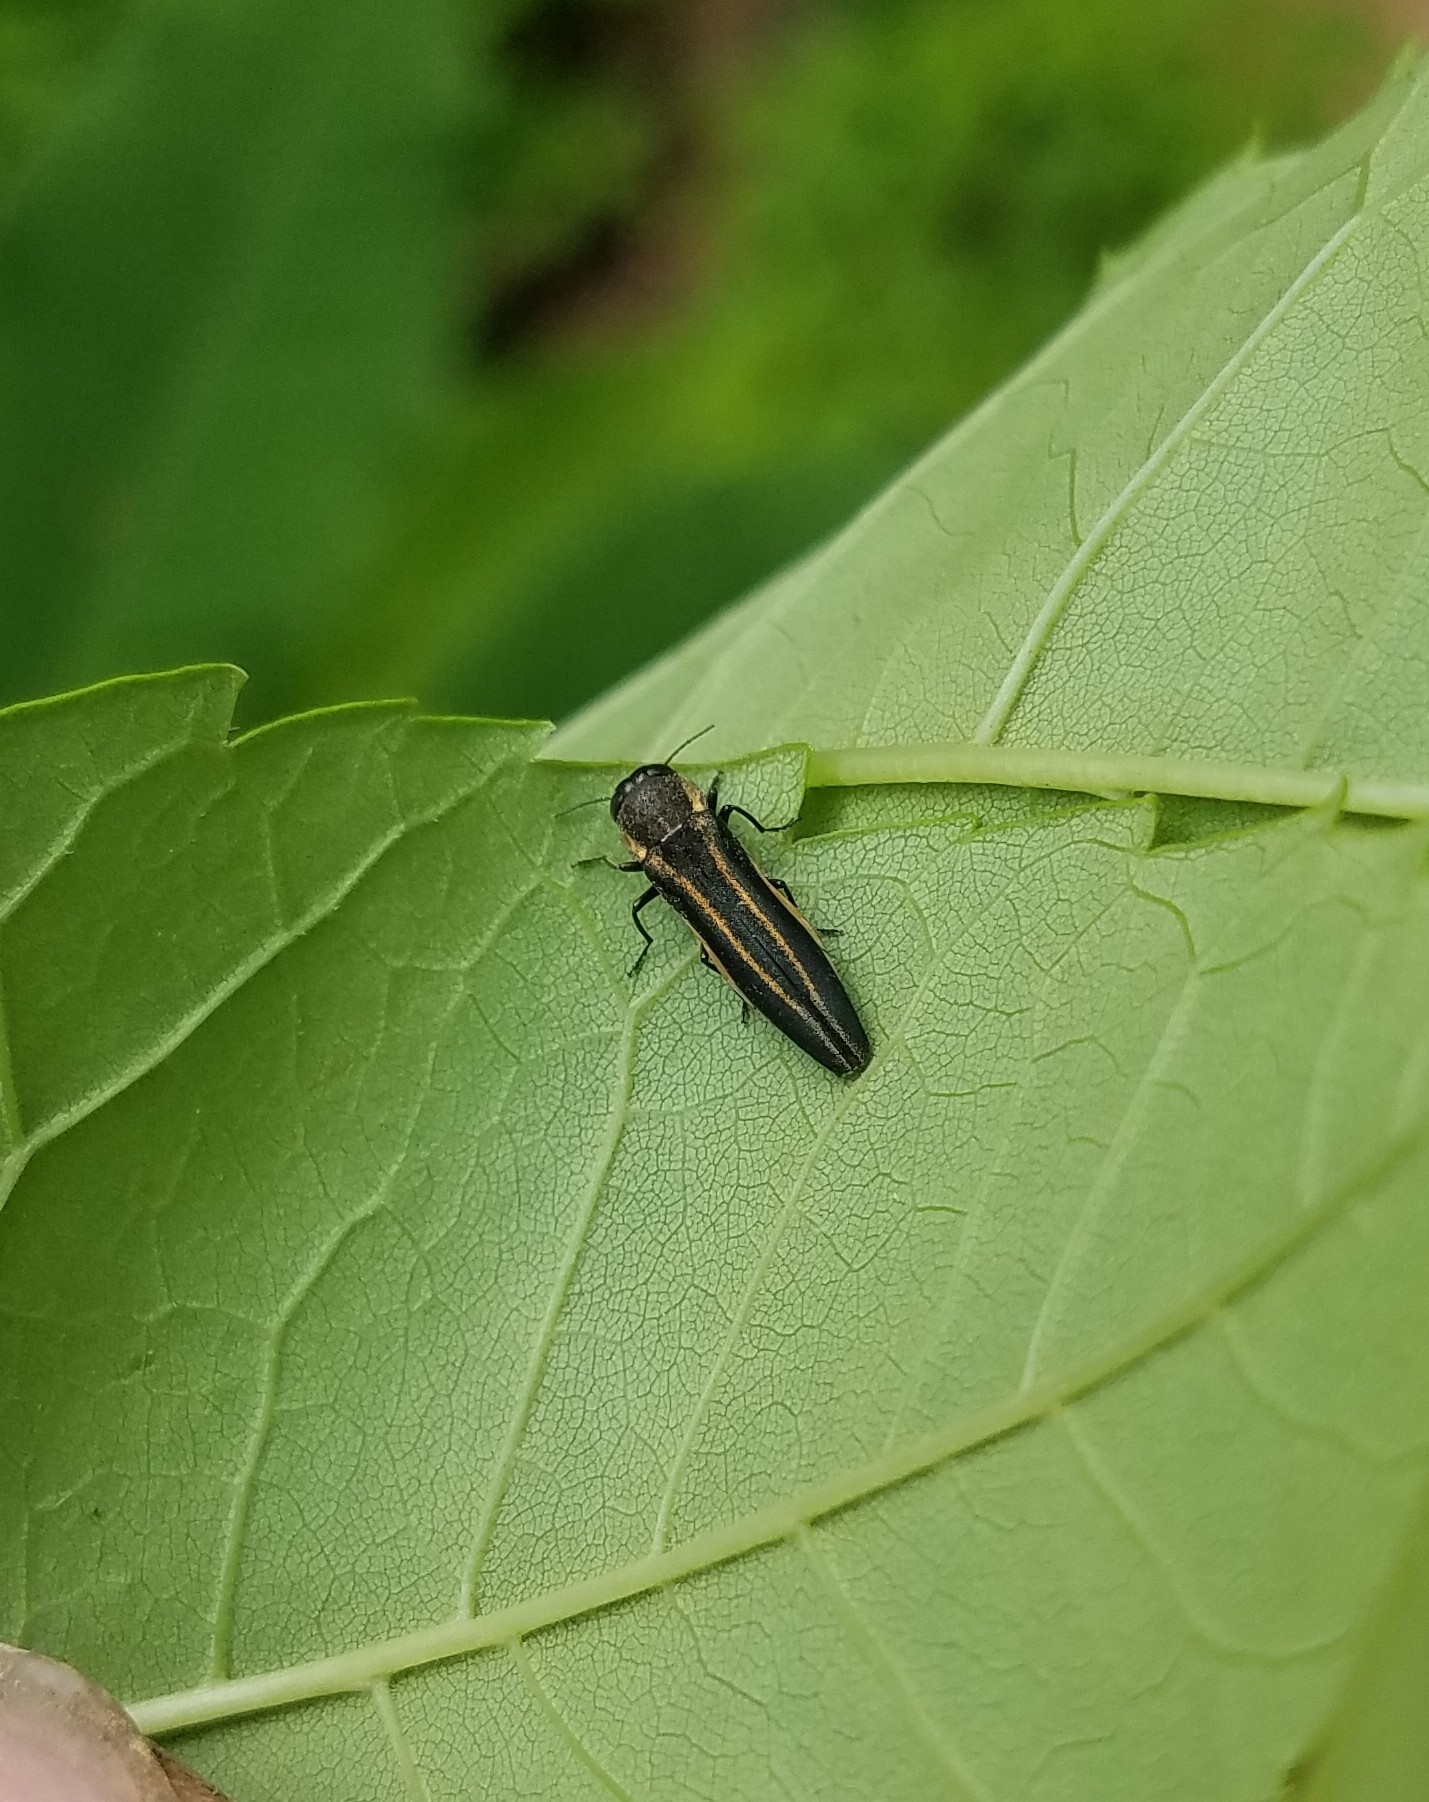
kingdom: Animalia
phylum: Arthropoda
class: Insecta
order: Coleoptera
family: Buprestidae
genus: Agrilus
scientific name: Agrilus bilineatus
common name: Two-lined chestnut borer
